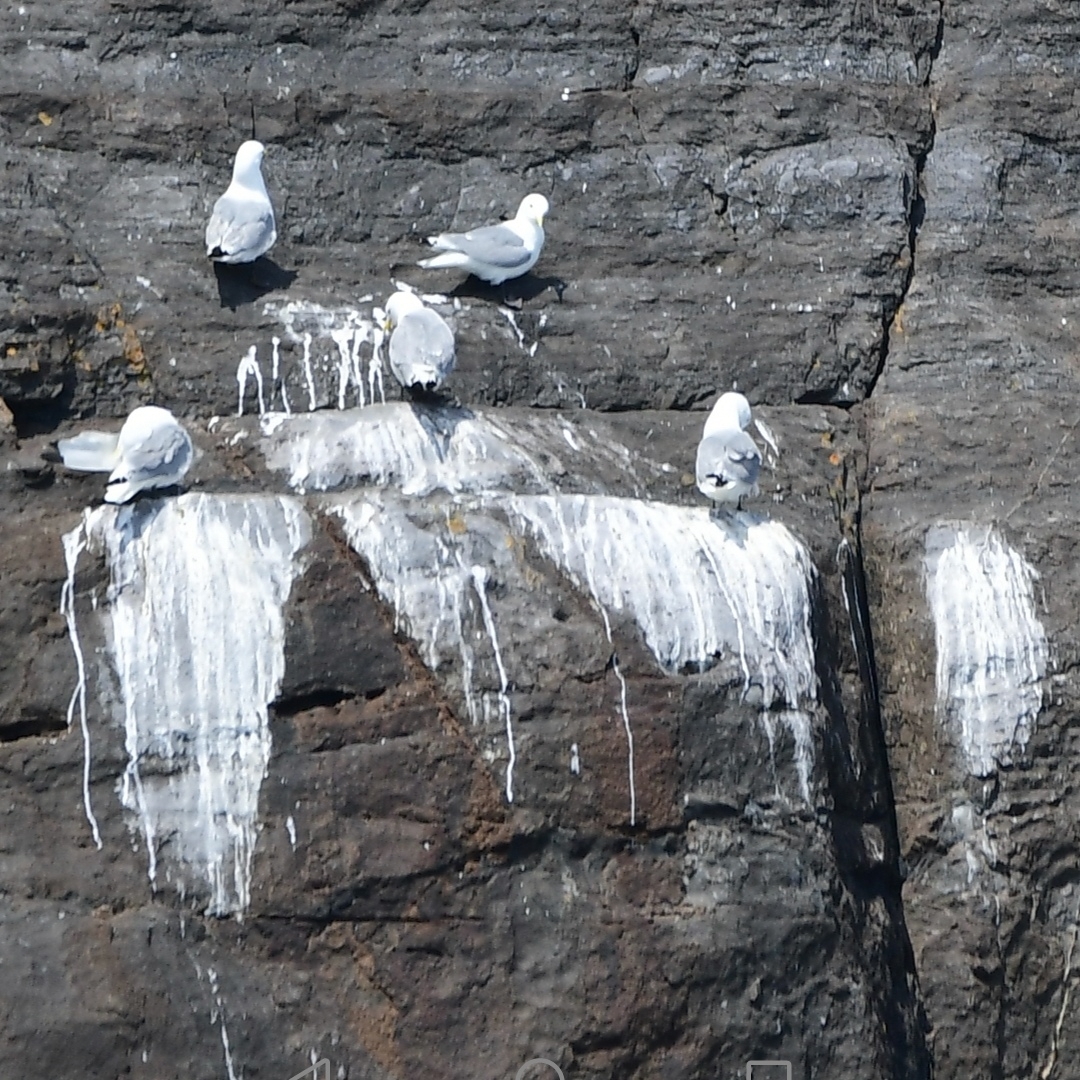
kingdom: Animalia
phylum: Chordata
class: Aves
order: Charadriiformes
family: Laridae
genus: Rissa
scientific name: Rissa tridactyla
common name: Black-legged kittiwake
